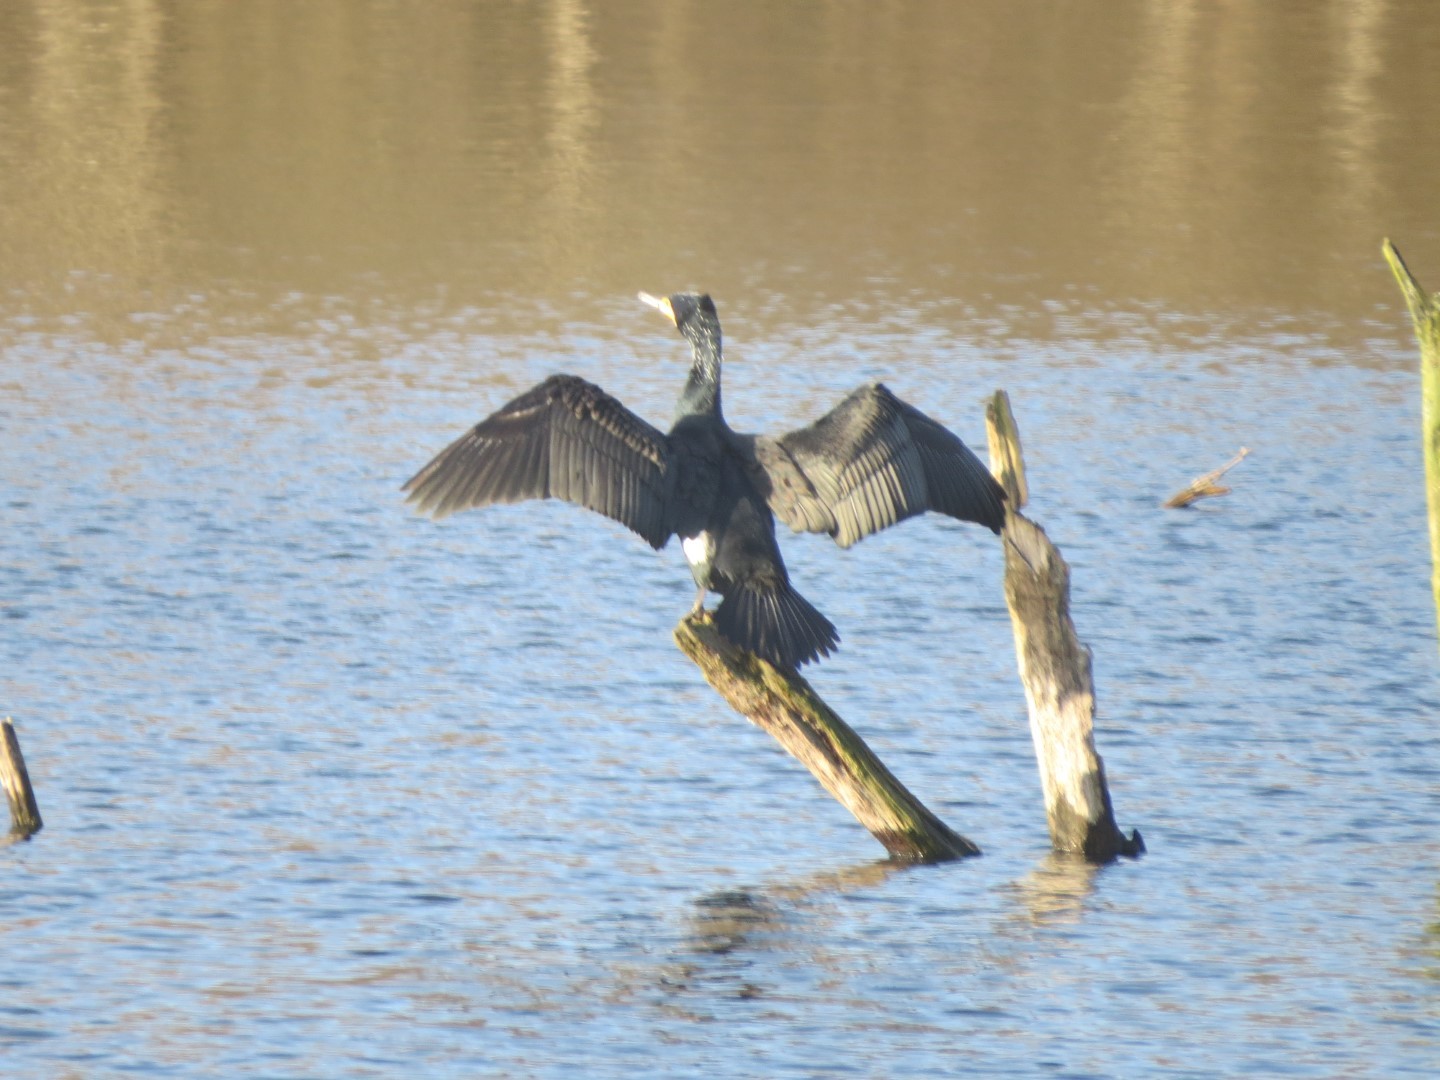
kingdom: Animalia
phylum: Chordata
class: Aves
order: Suliformes
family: Phalacrocoracidae
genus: Phalacrocorax
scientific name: Phalacrocorax carbo
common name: Great cormorant
